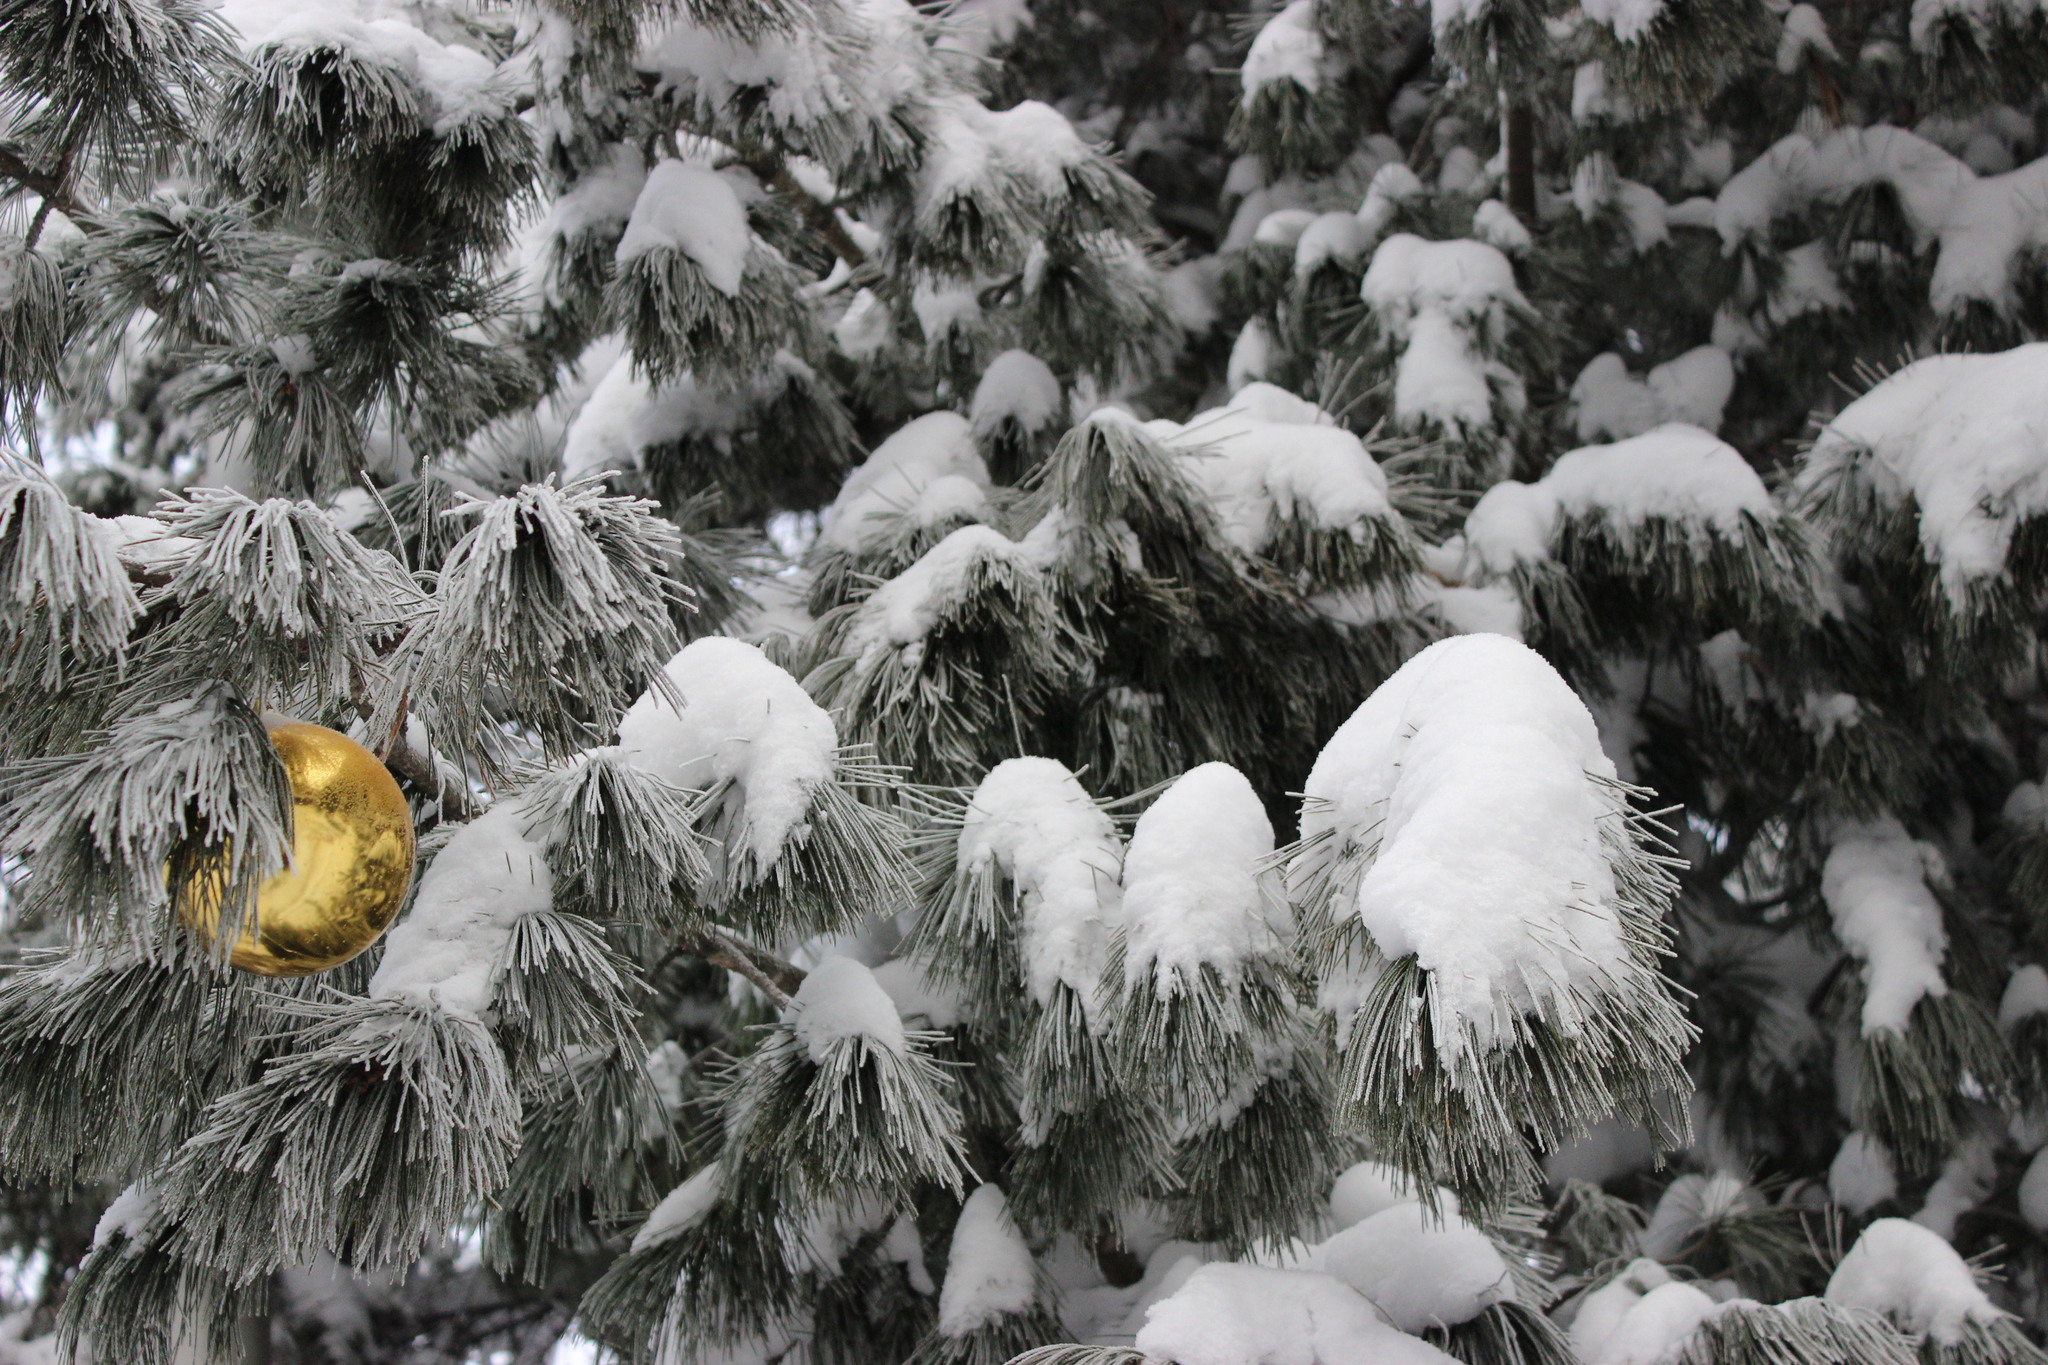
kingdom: Plantae
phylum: Tracheophyta
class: Pinopsida
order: Pinales
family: Pinaceae
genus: Pinus
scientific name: Pinus sibirica
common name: Siberian pine
